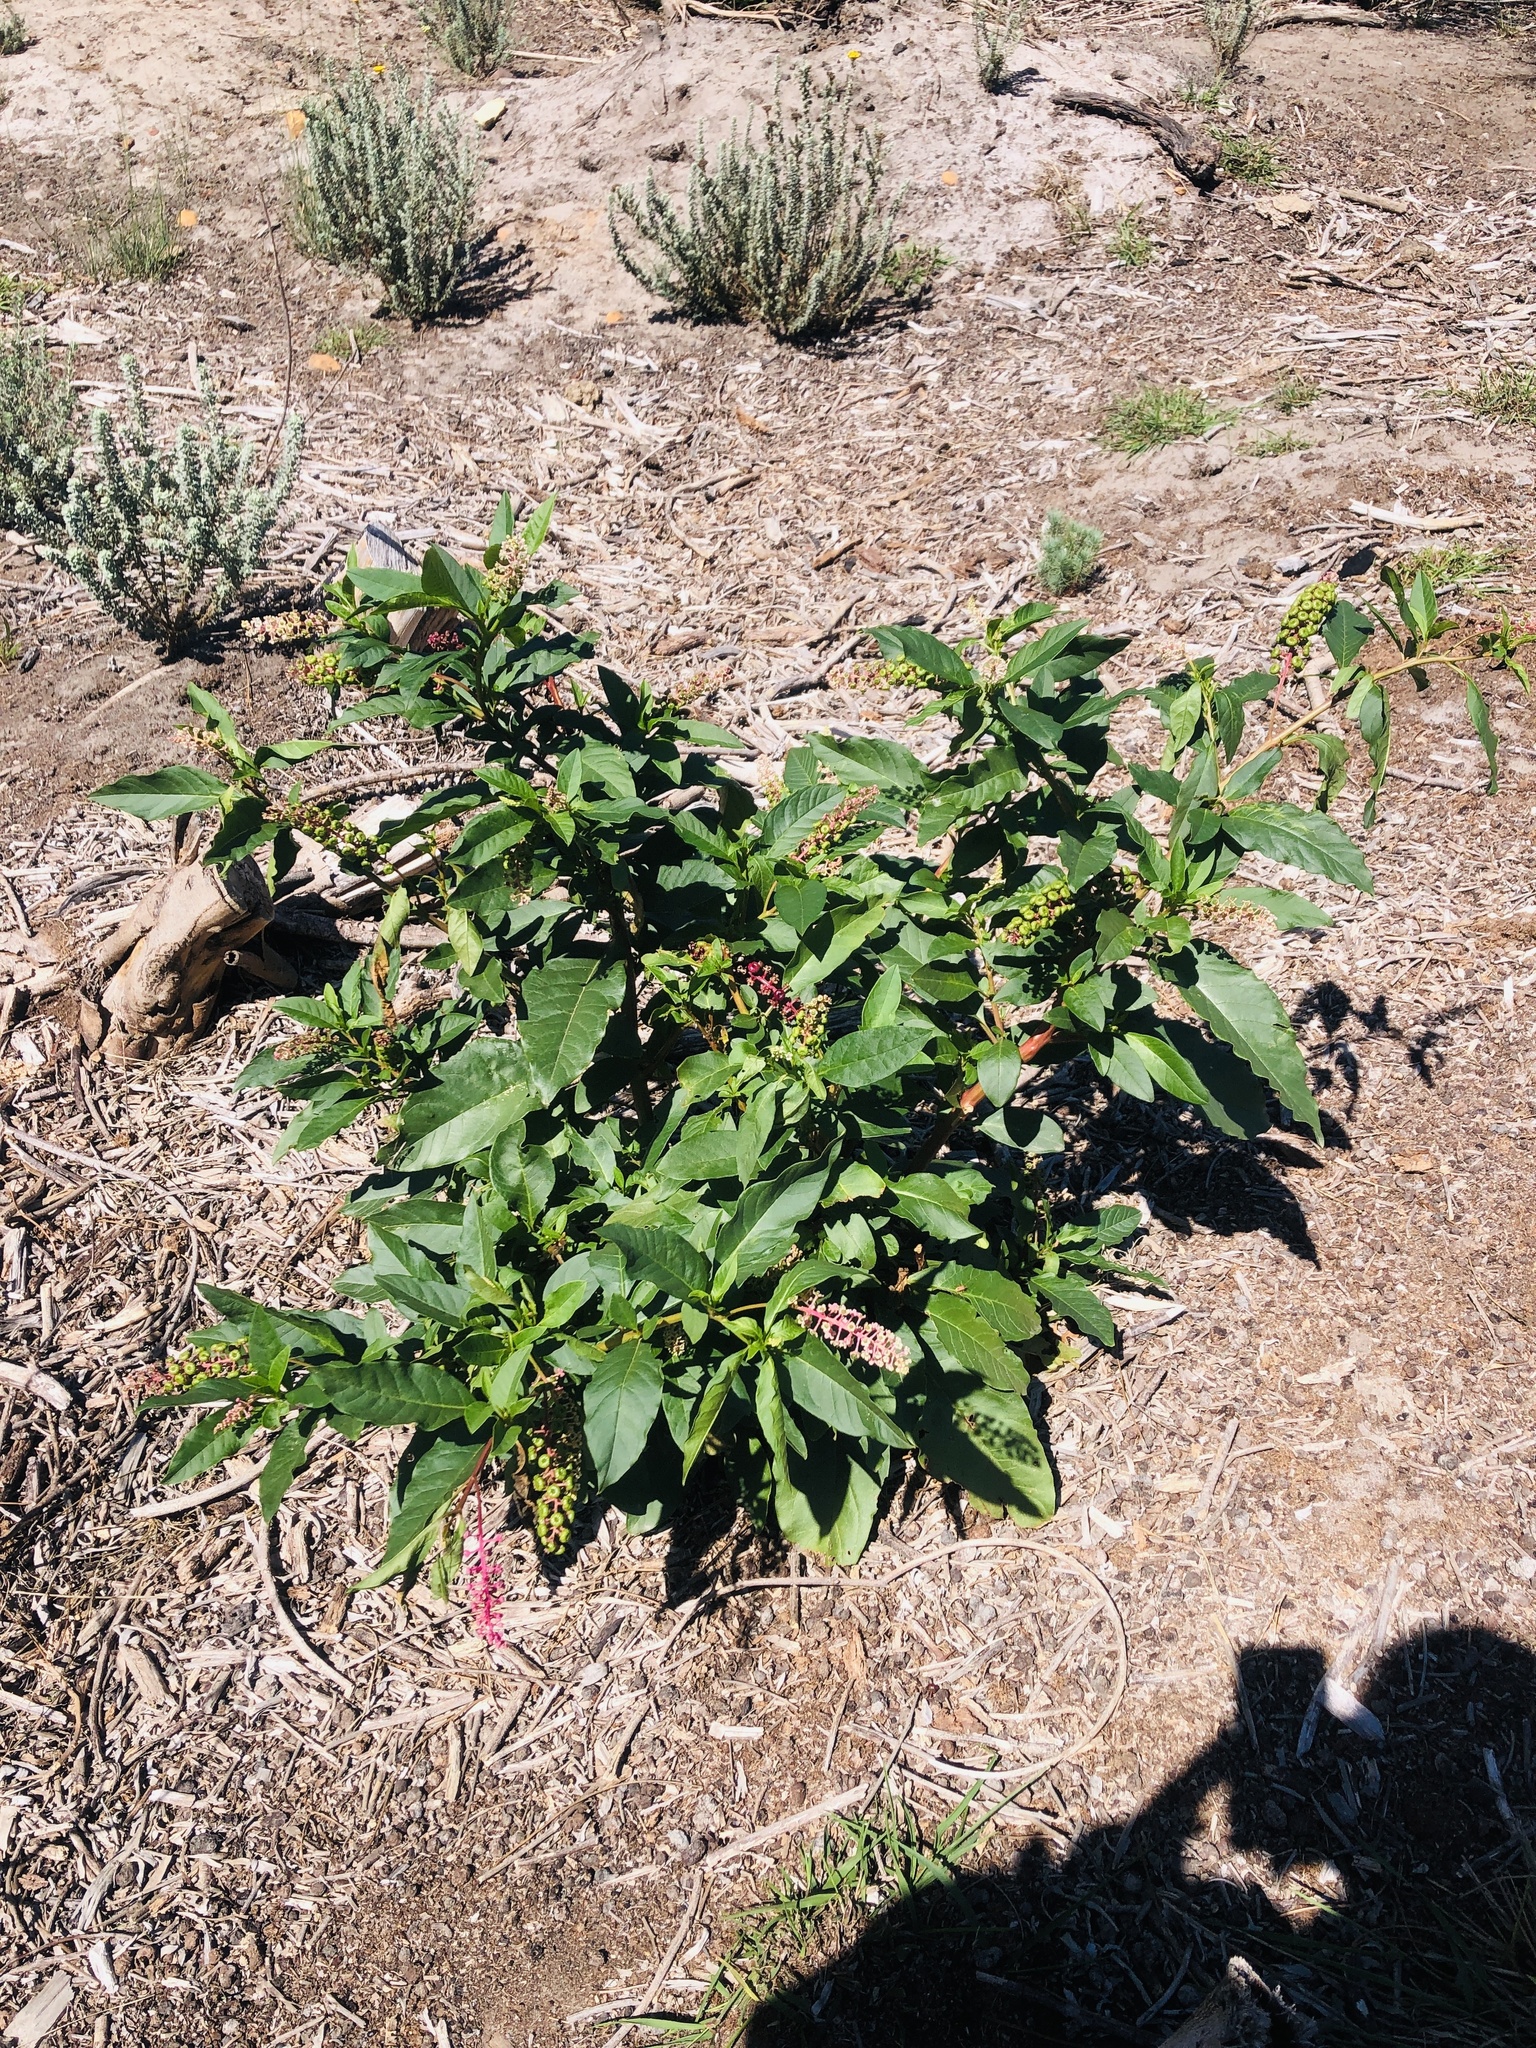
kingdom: Plantae
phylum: Tracheophyta
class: Magnoliopsida
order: Caryophyllales
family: Phytolaccaceae
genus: Phytolacca
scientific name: Phytolacca americana
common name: American pokeweed
